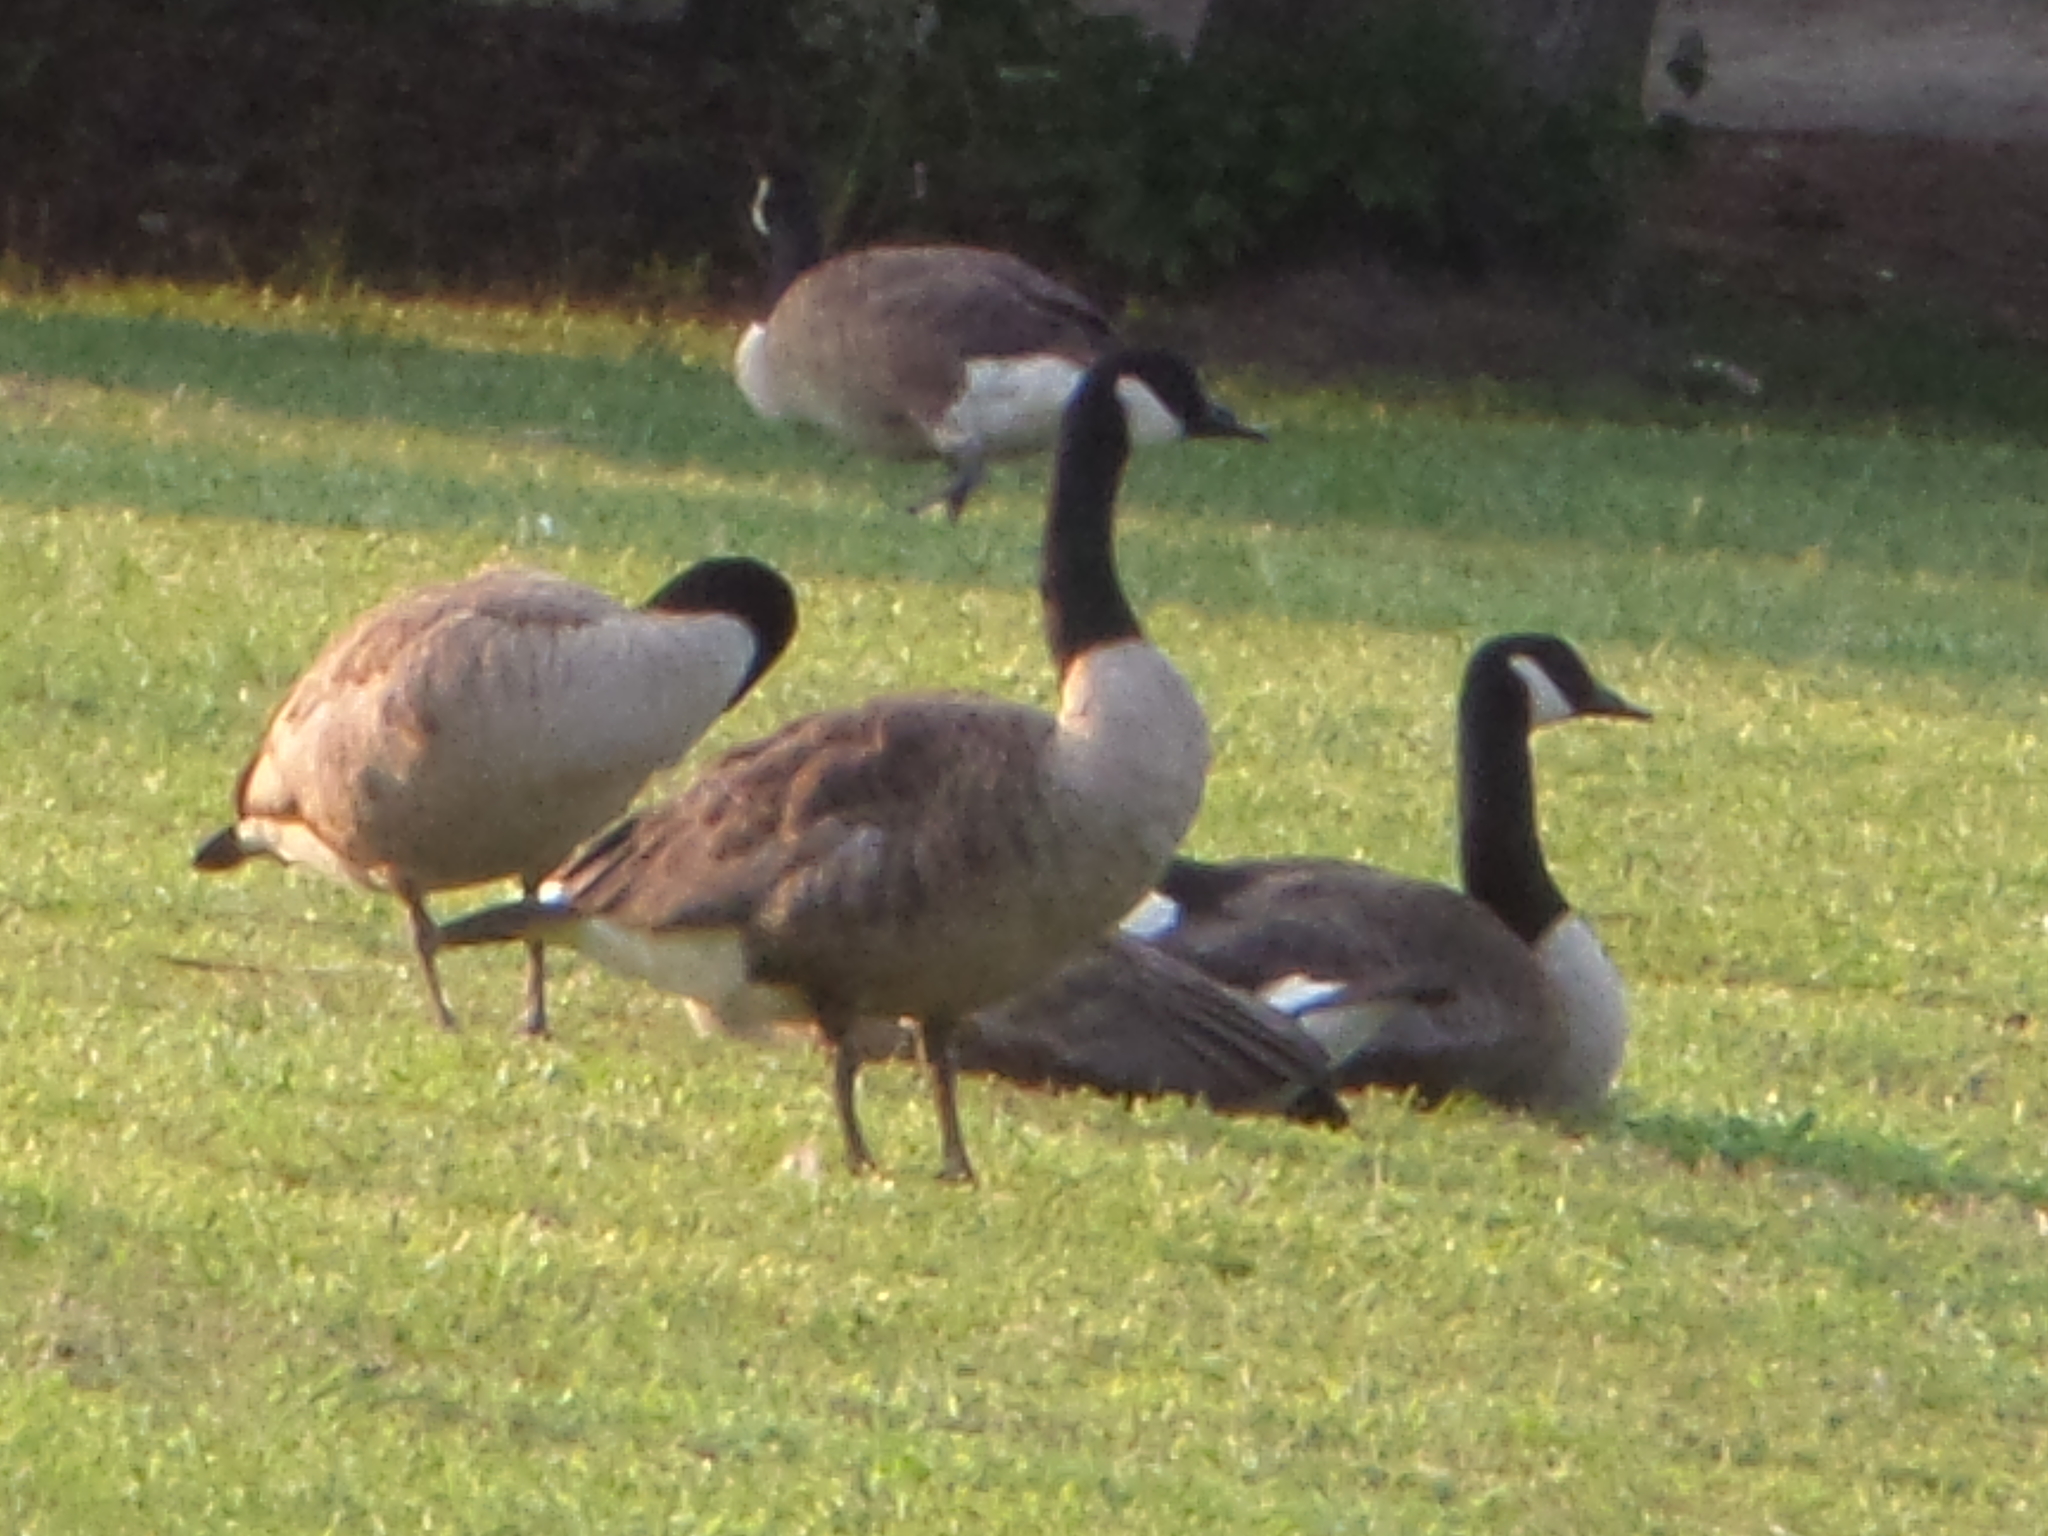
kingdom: Animalia
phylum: Chordata
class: Aves
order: Anseriformes
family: Anatidae
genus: Branta
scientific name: Branta canadensis
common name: Canada goose
